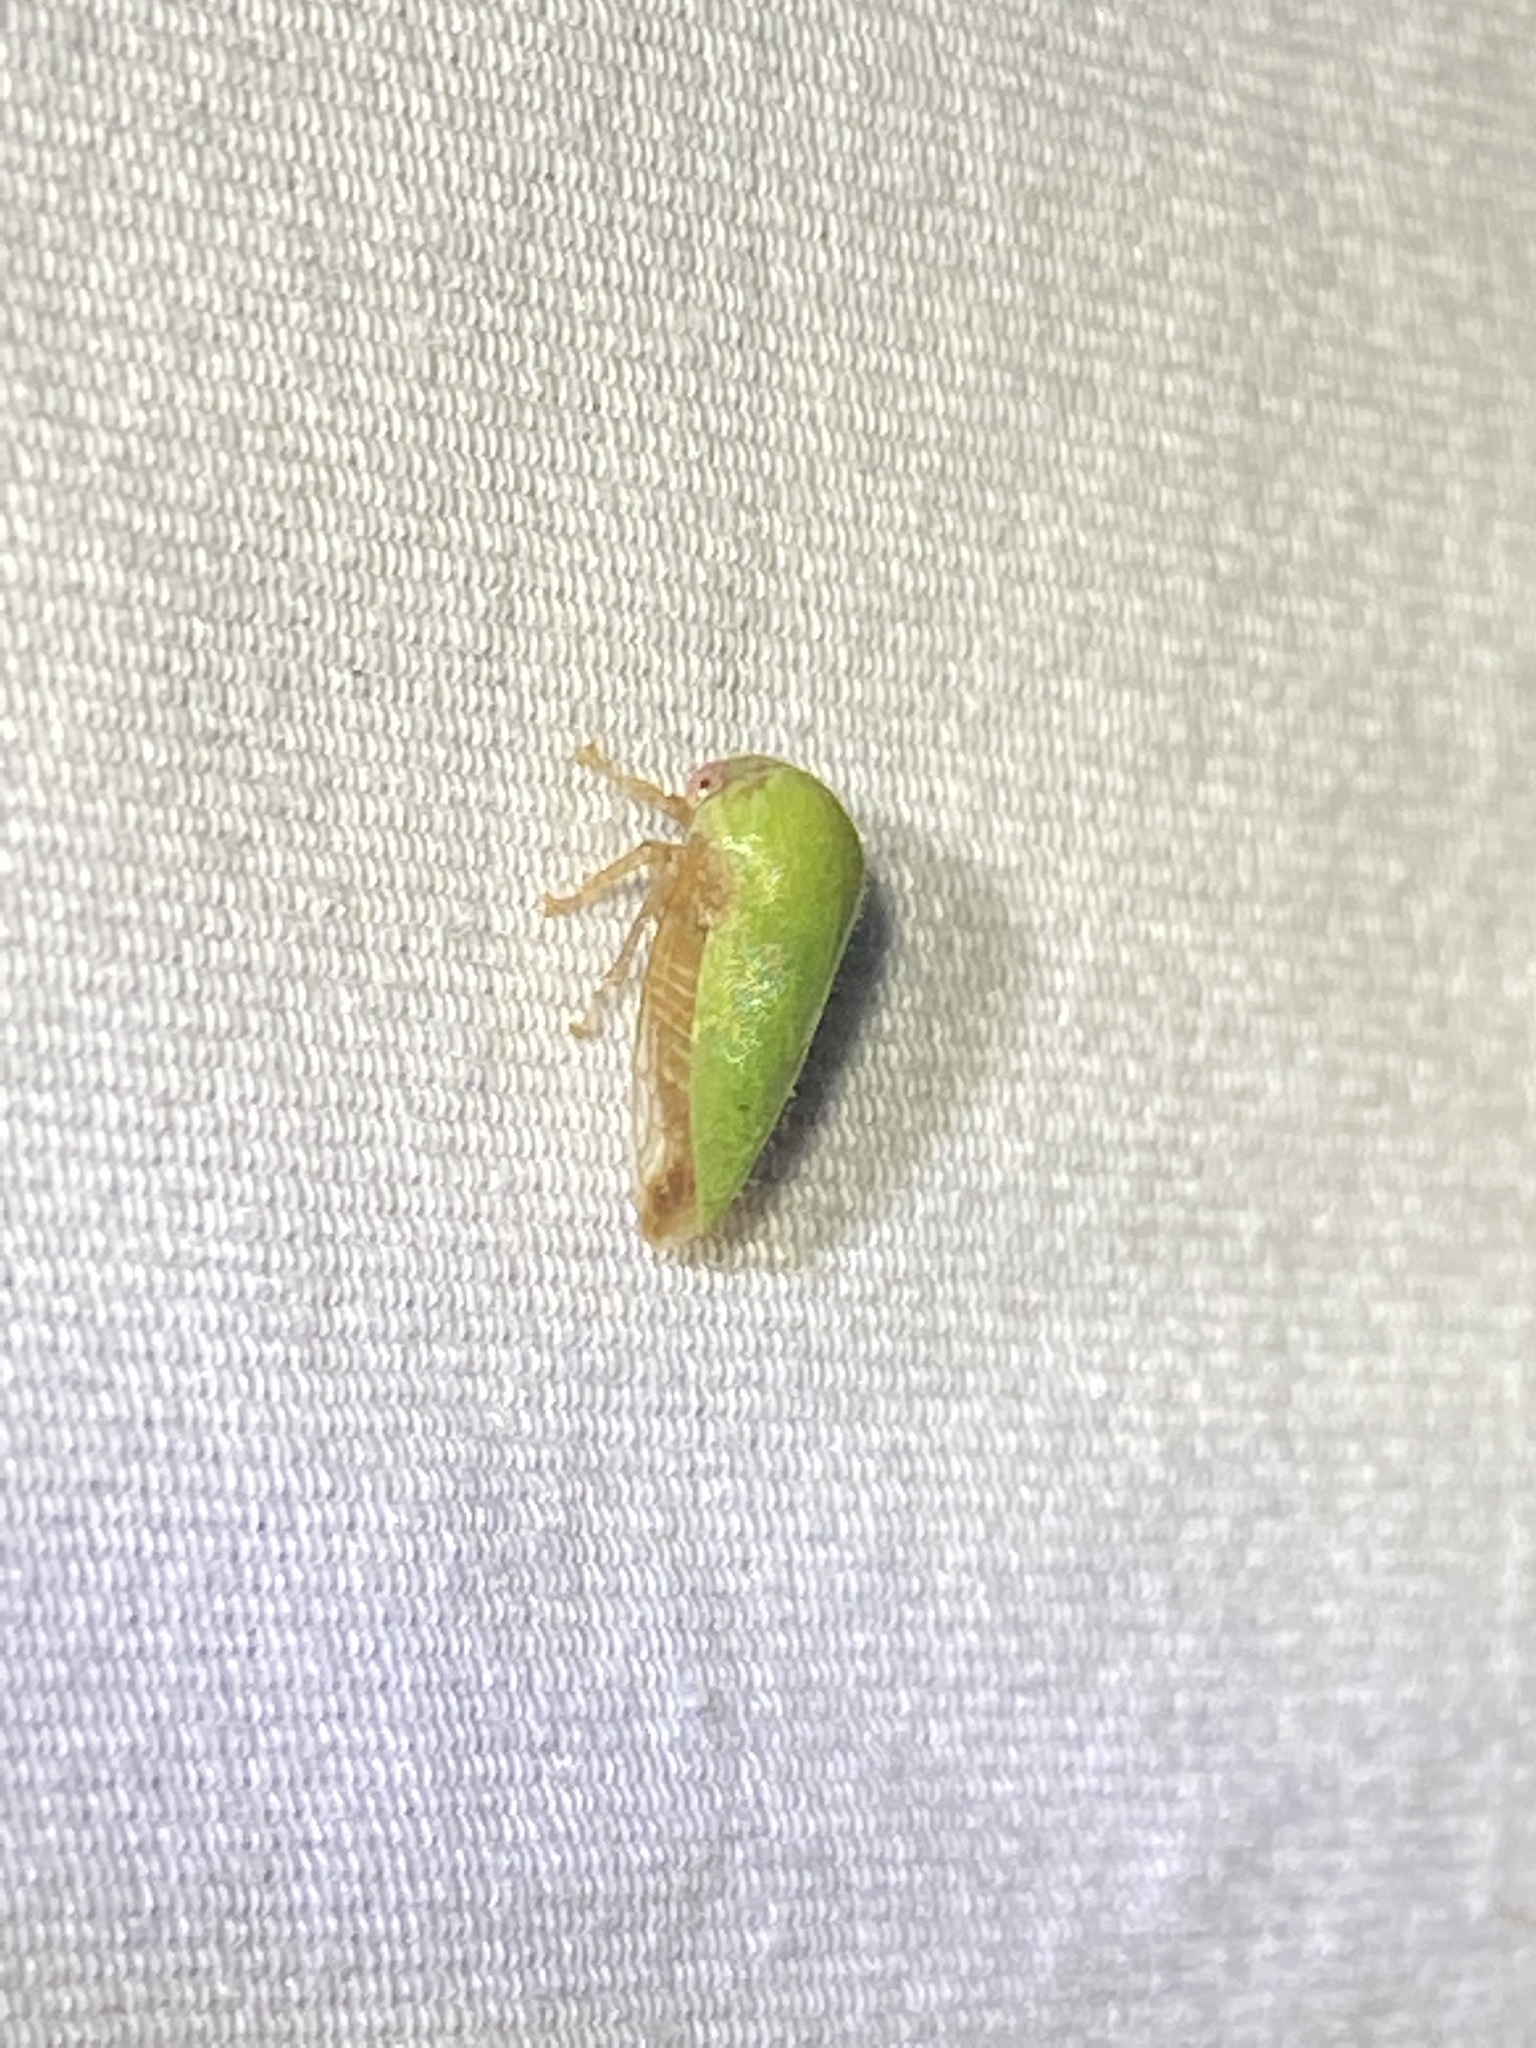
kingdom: Animalia
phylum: Arthropoda
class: Insecta
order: Hemiptera
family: Membracidae
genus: Ophiderma
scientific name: Ophiderma evelyna
